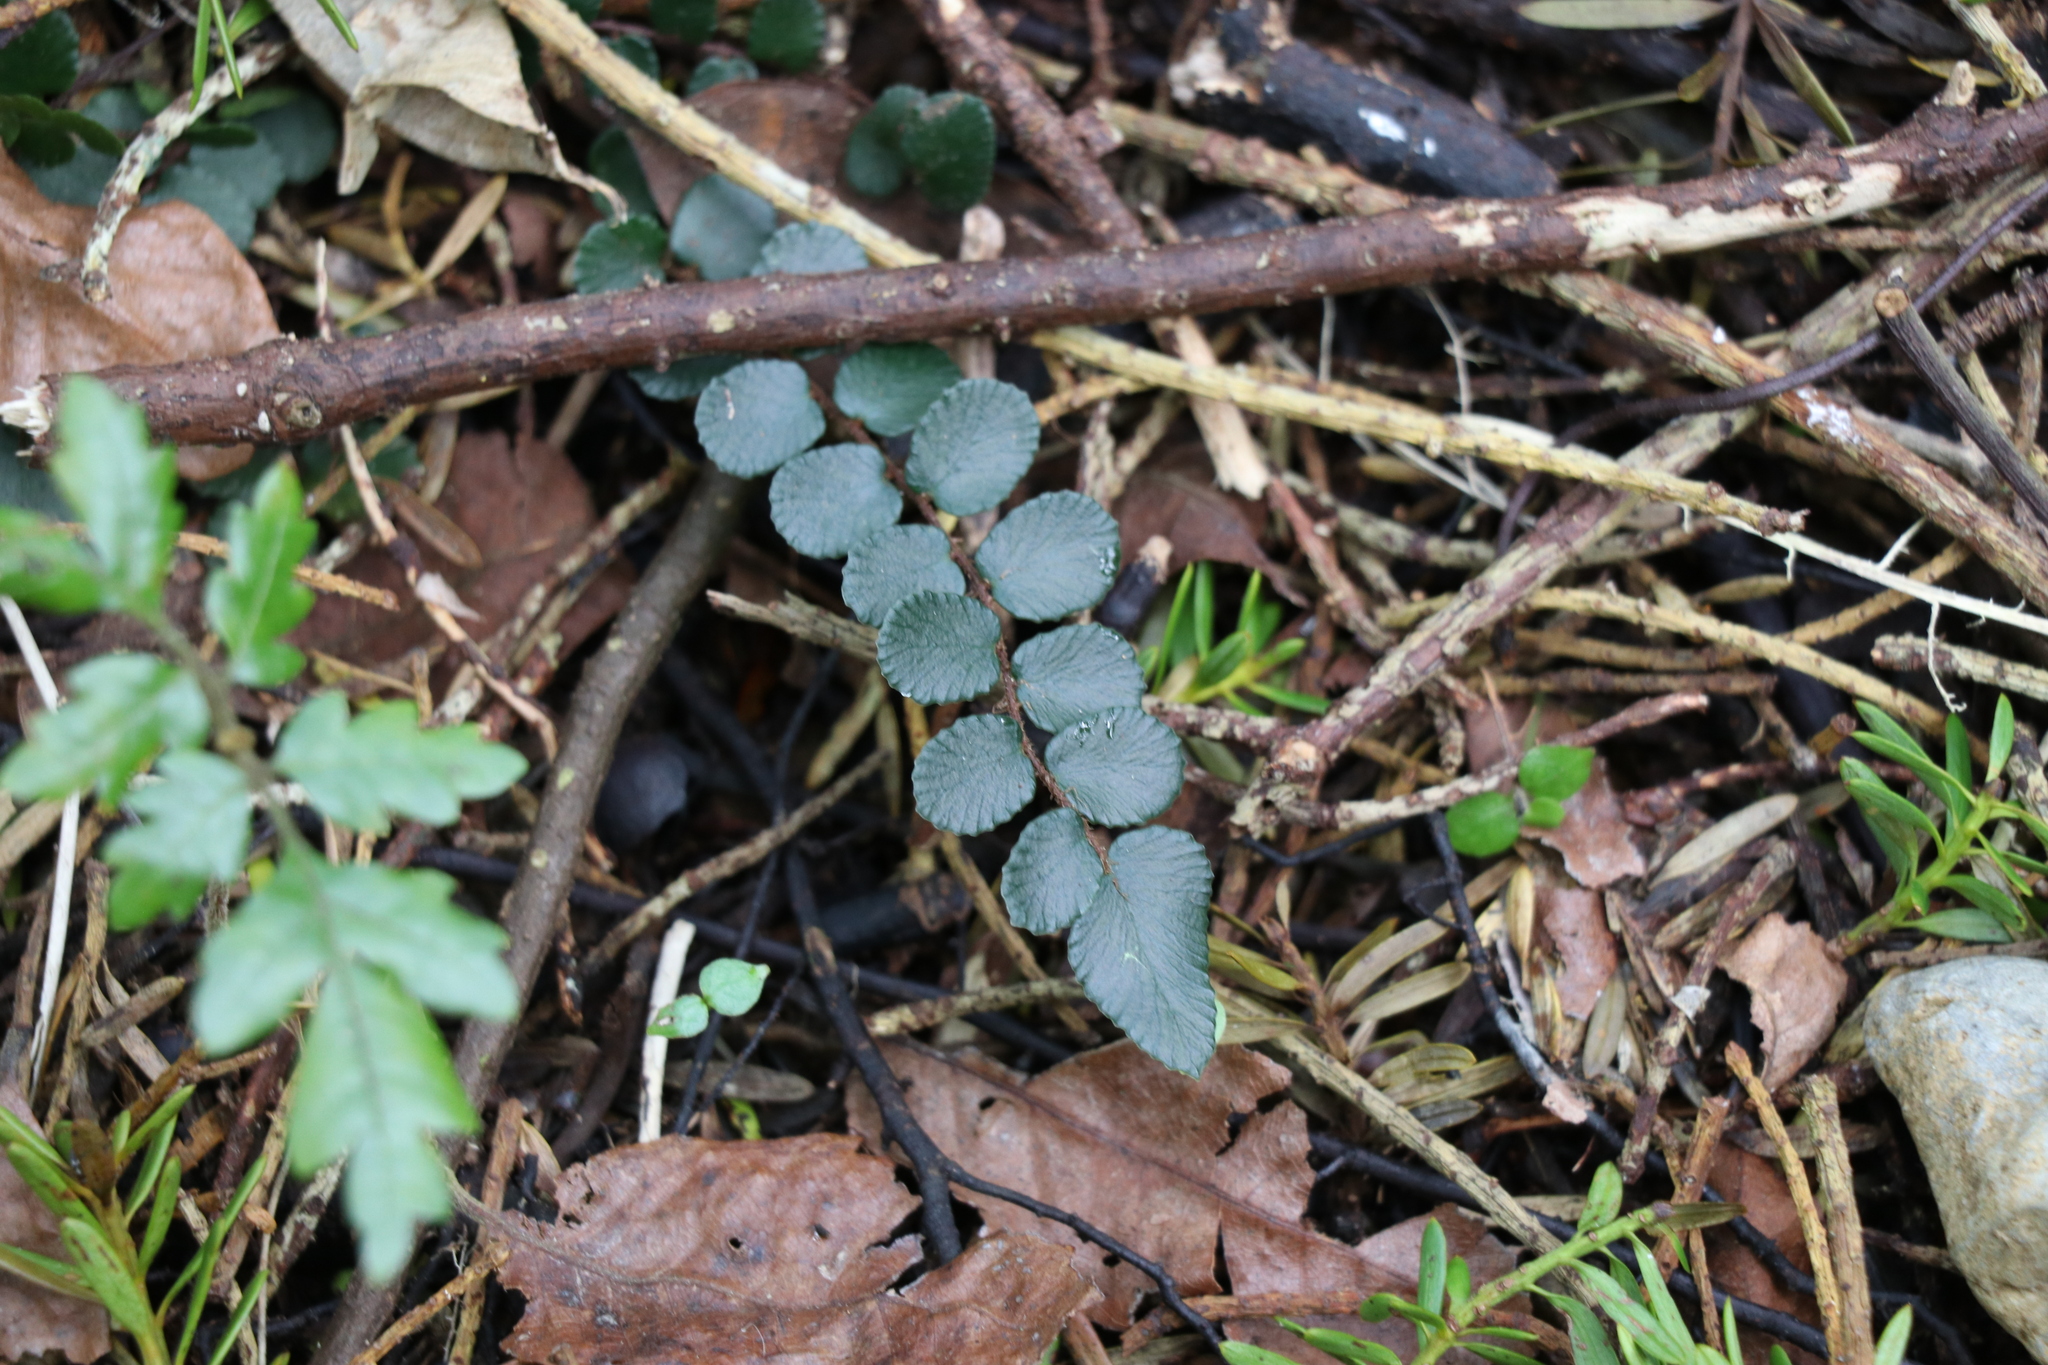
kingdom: Plantae
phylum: Tracheophyta
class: Polypodiopsida
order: Polypodiales
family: Pteridaceae
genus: Pellaea
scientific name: Pellaea rotundifolia
